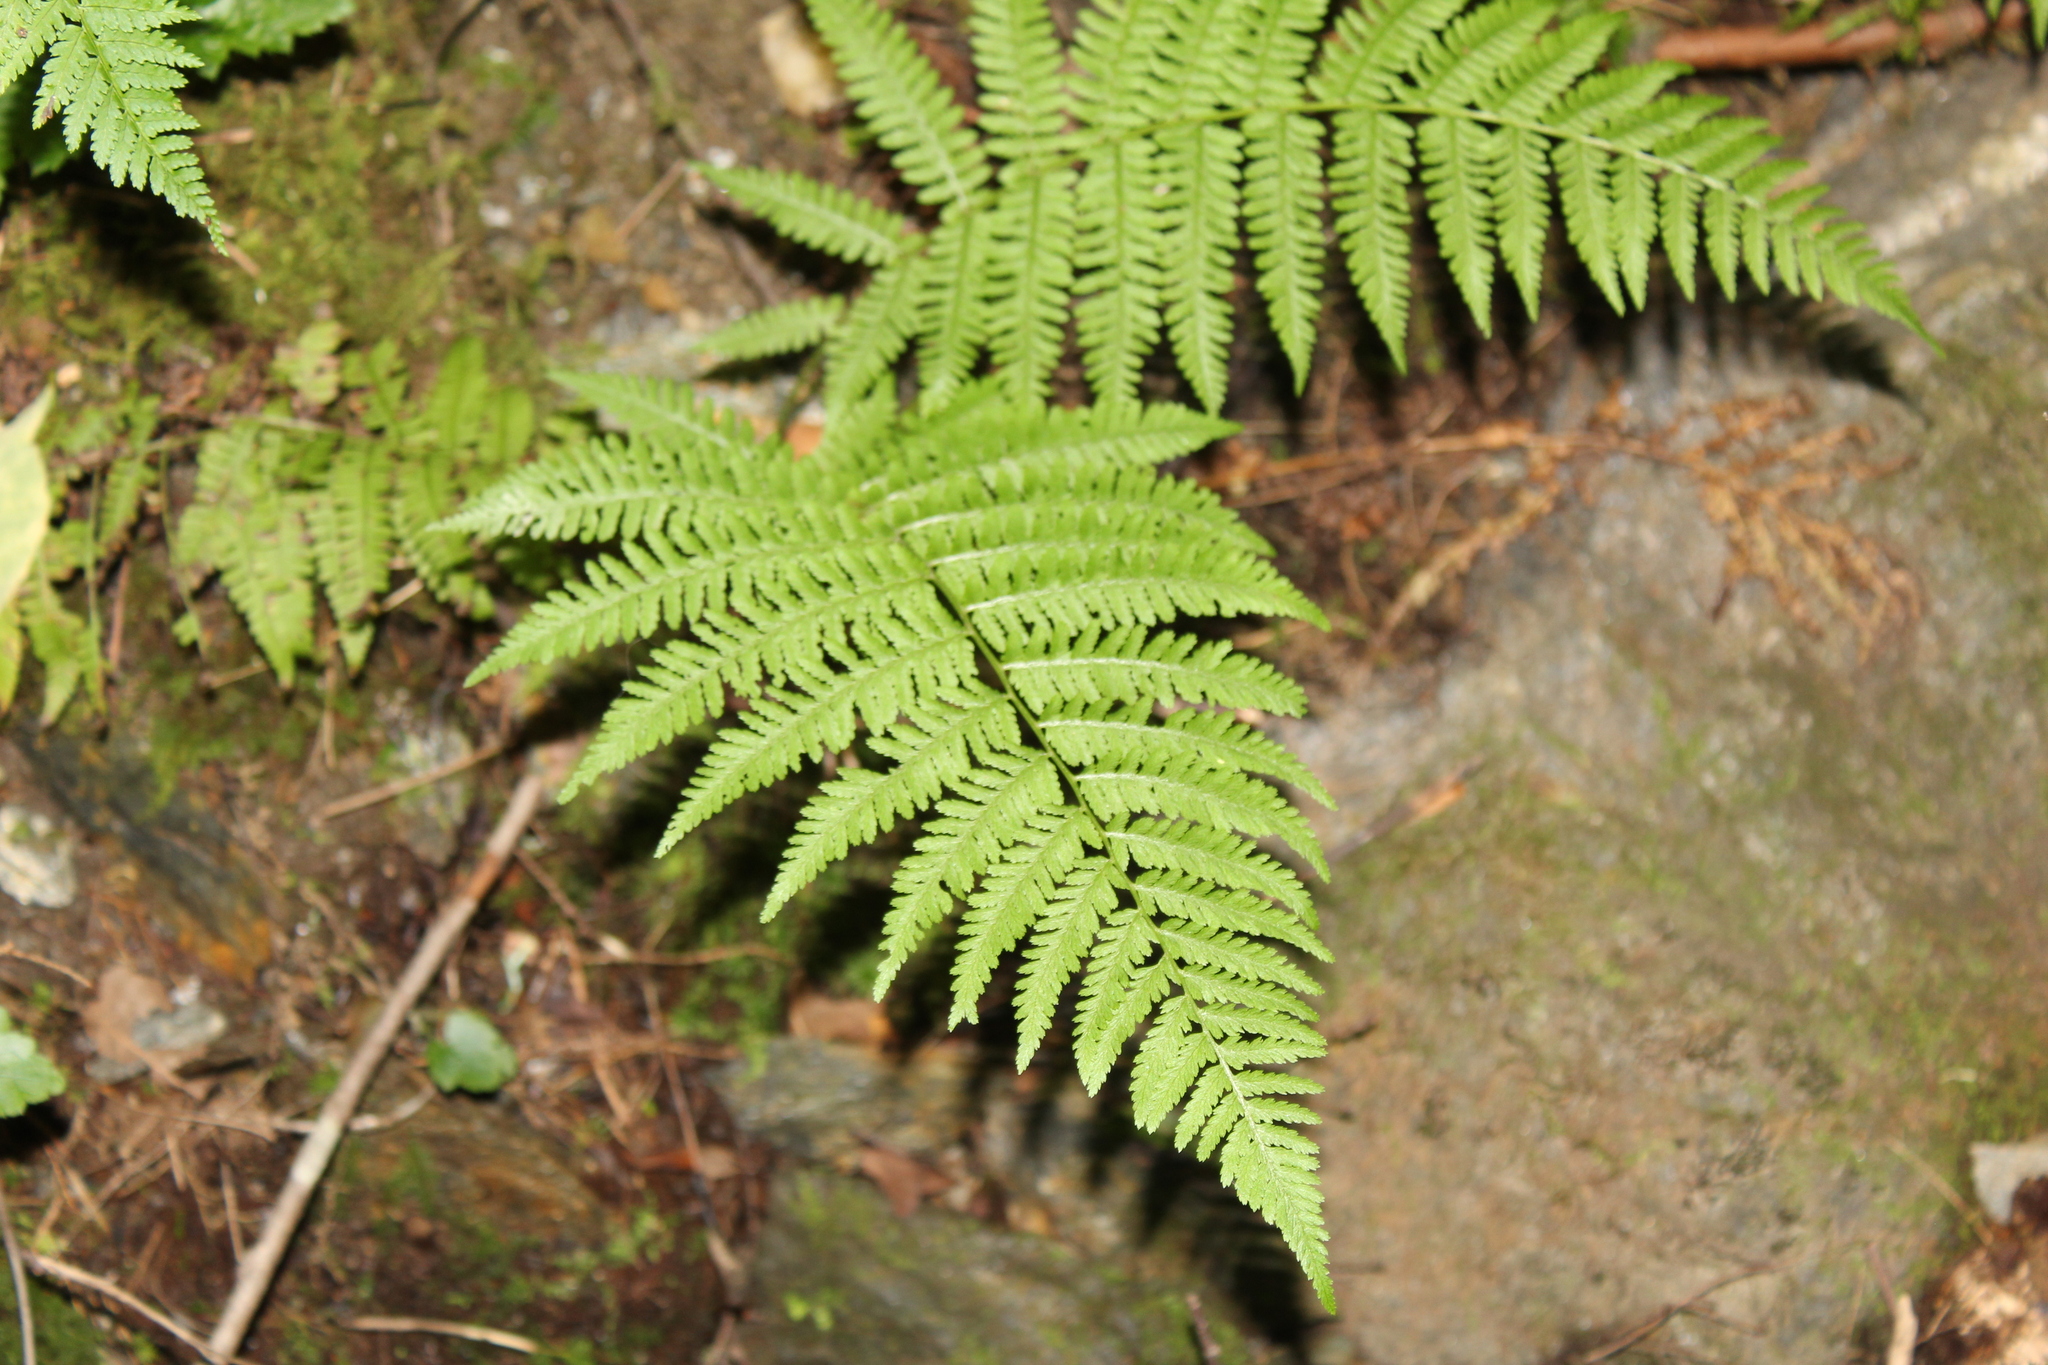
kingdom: Plantae
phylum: Tracheophyta
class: Polypodiopsida
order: Polypodiales
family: Athyriaceae
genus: Athyrium
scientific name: Athyrium angustum
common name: Northern lady fern
